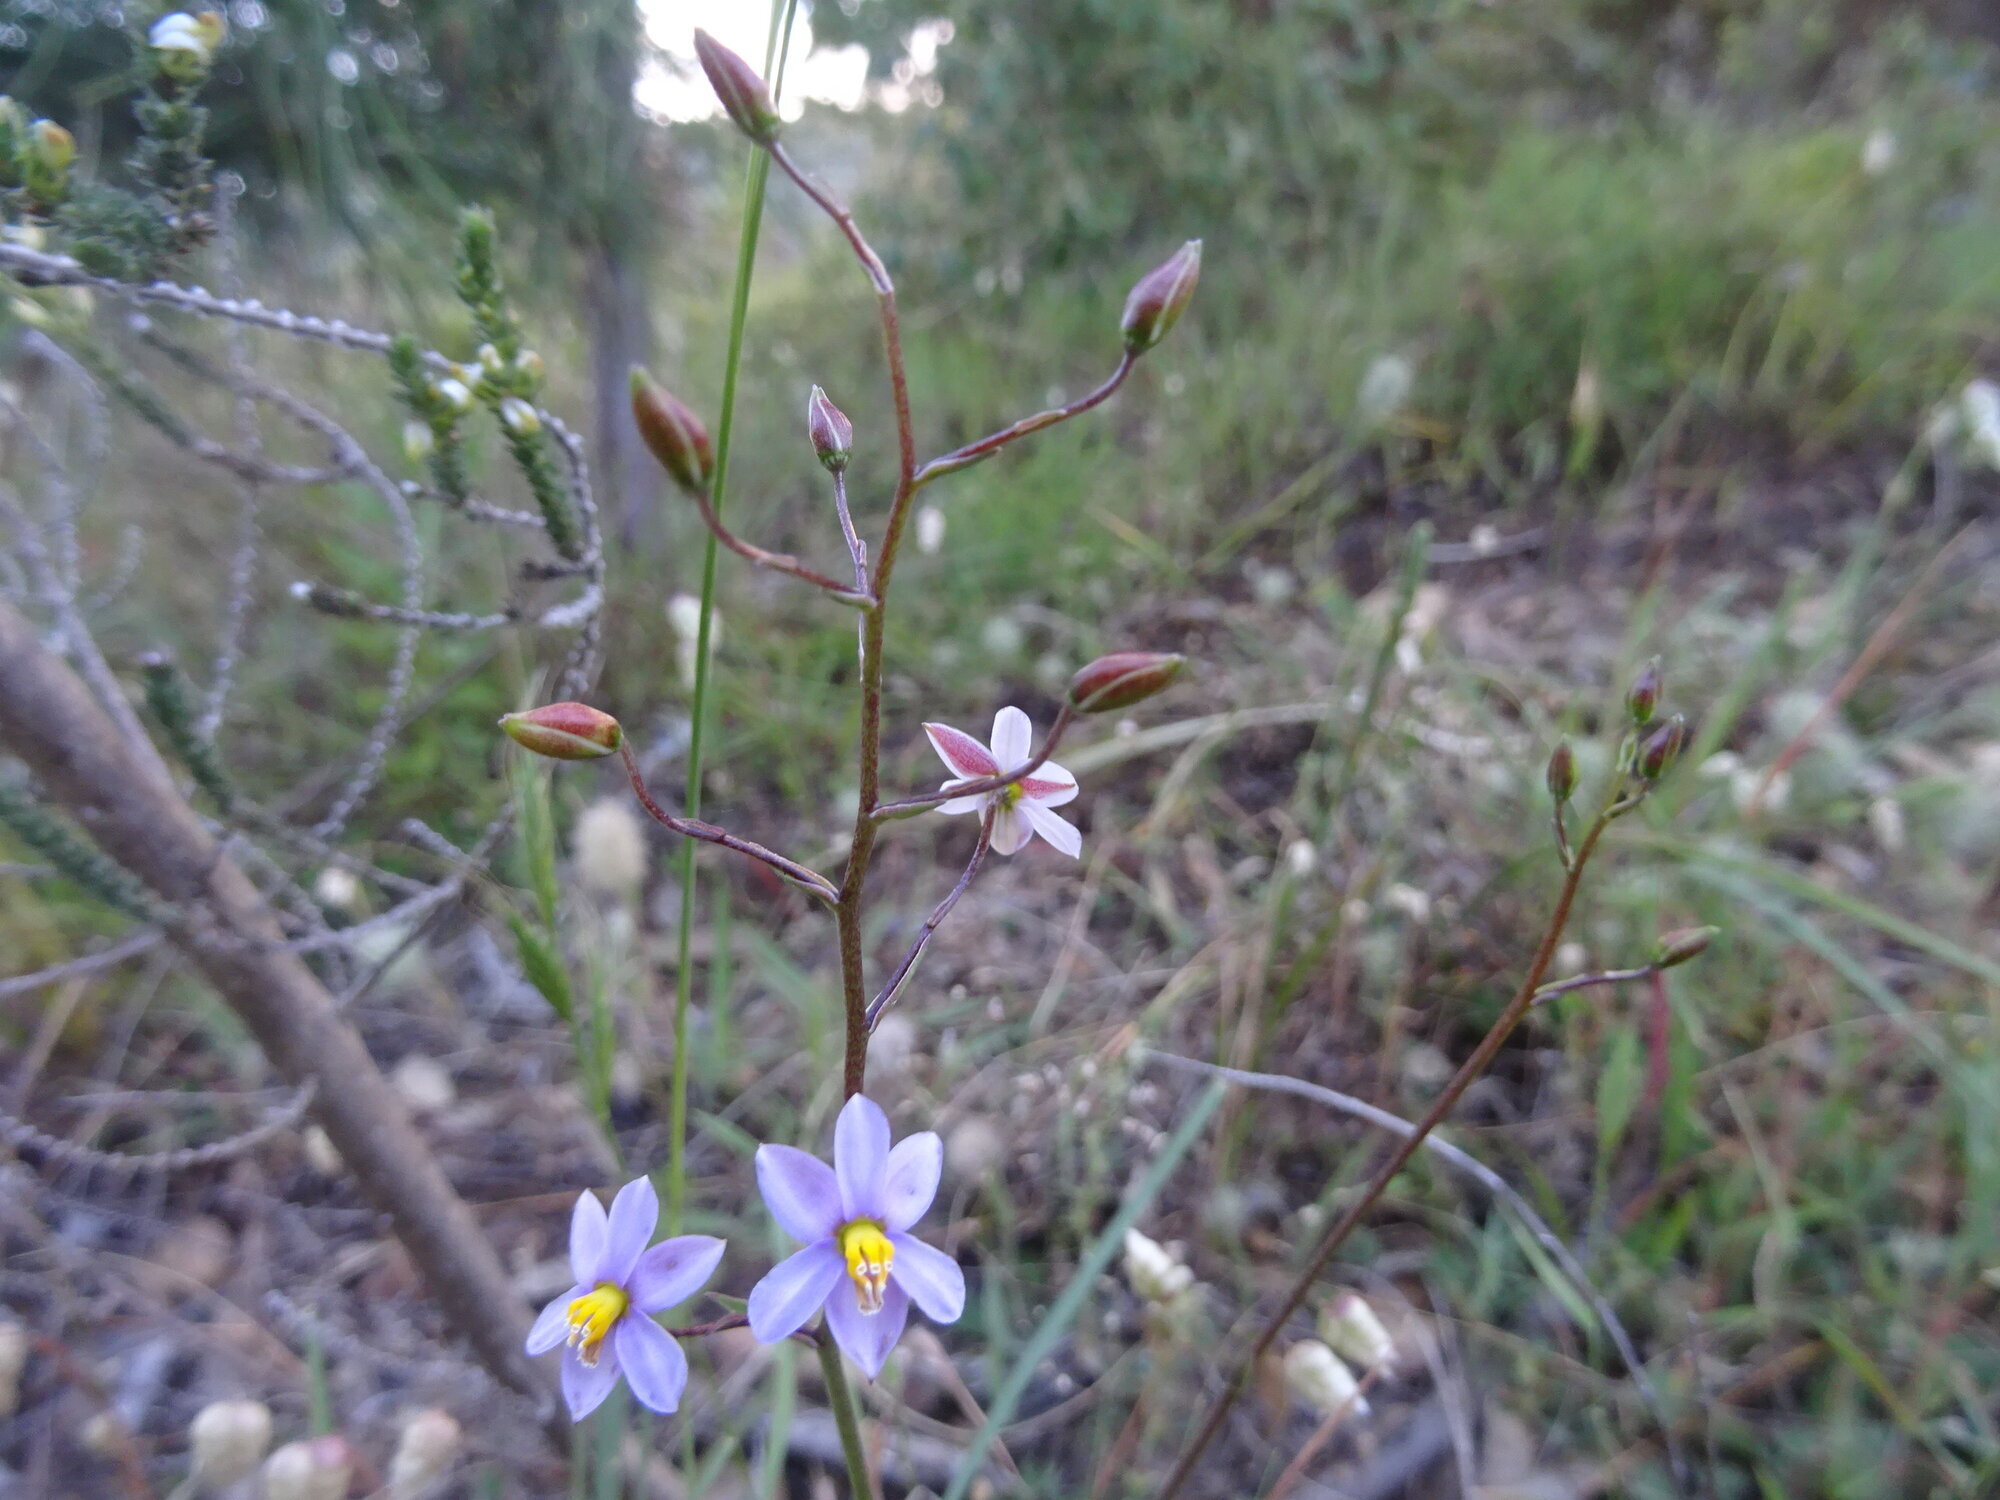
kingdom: Plantae
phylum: Tracheophyta
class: Liliopsida
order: Asparagales
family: Tecophilaeaceae
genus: Cyanella
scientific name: Cyanella hyacinthoides
